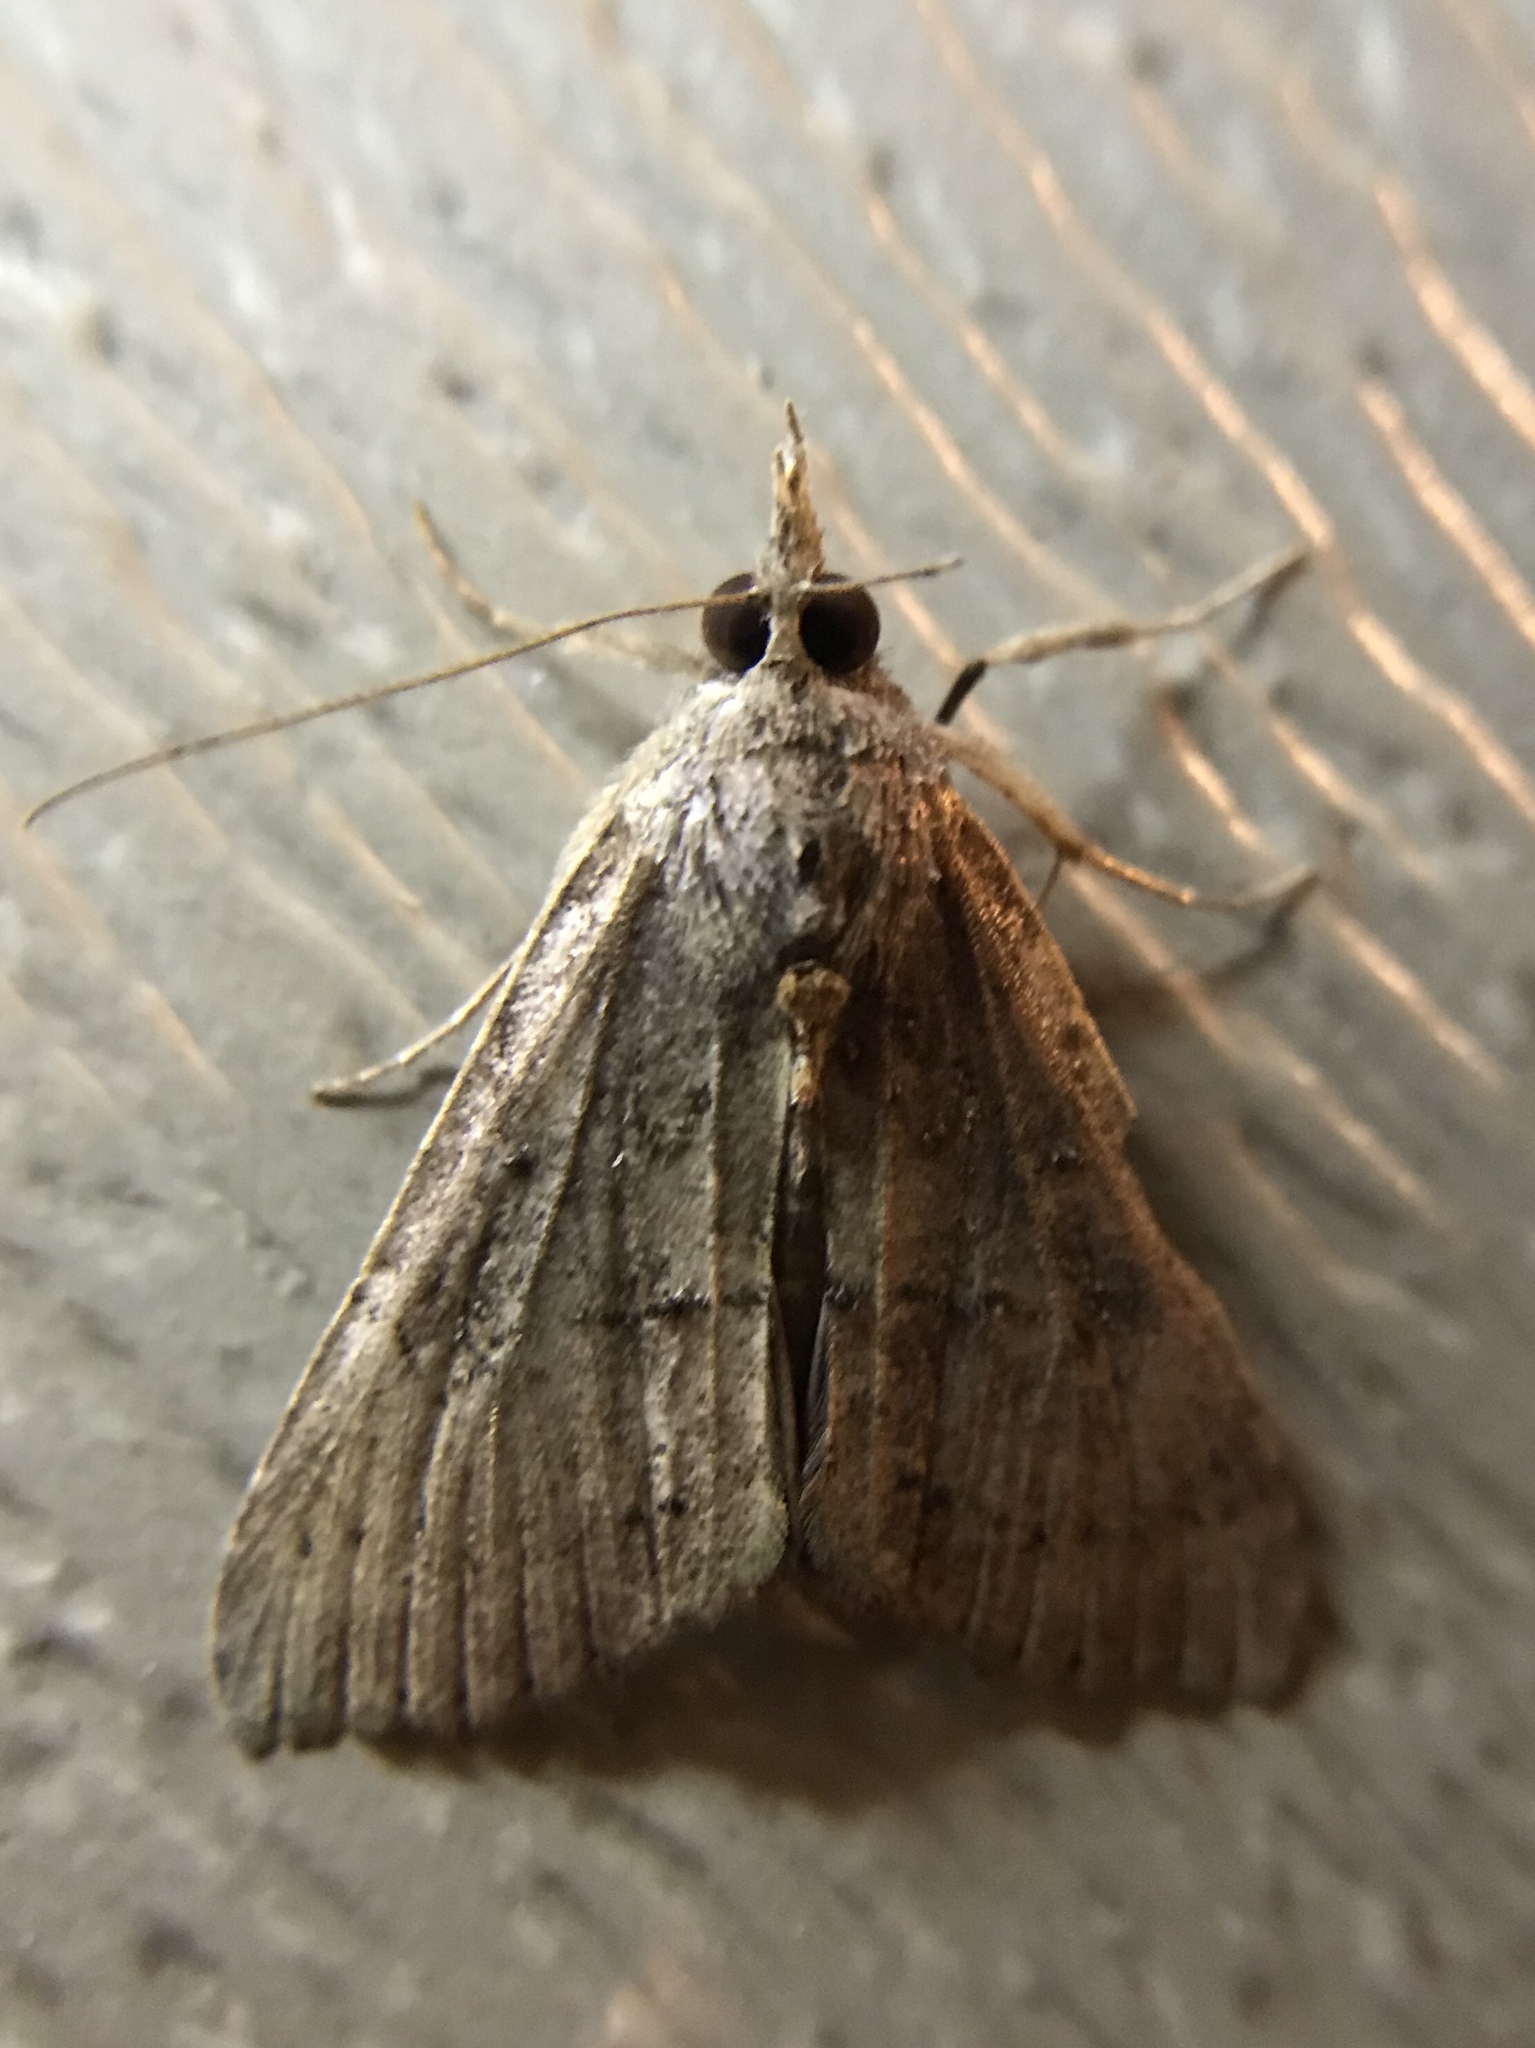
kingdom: Animalia
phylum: Arthropoda
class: Insecta
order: Lepidoptera
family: Erebidae
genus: Hypena
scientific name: Hypena scabra
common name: Green cloverworm
